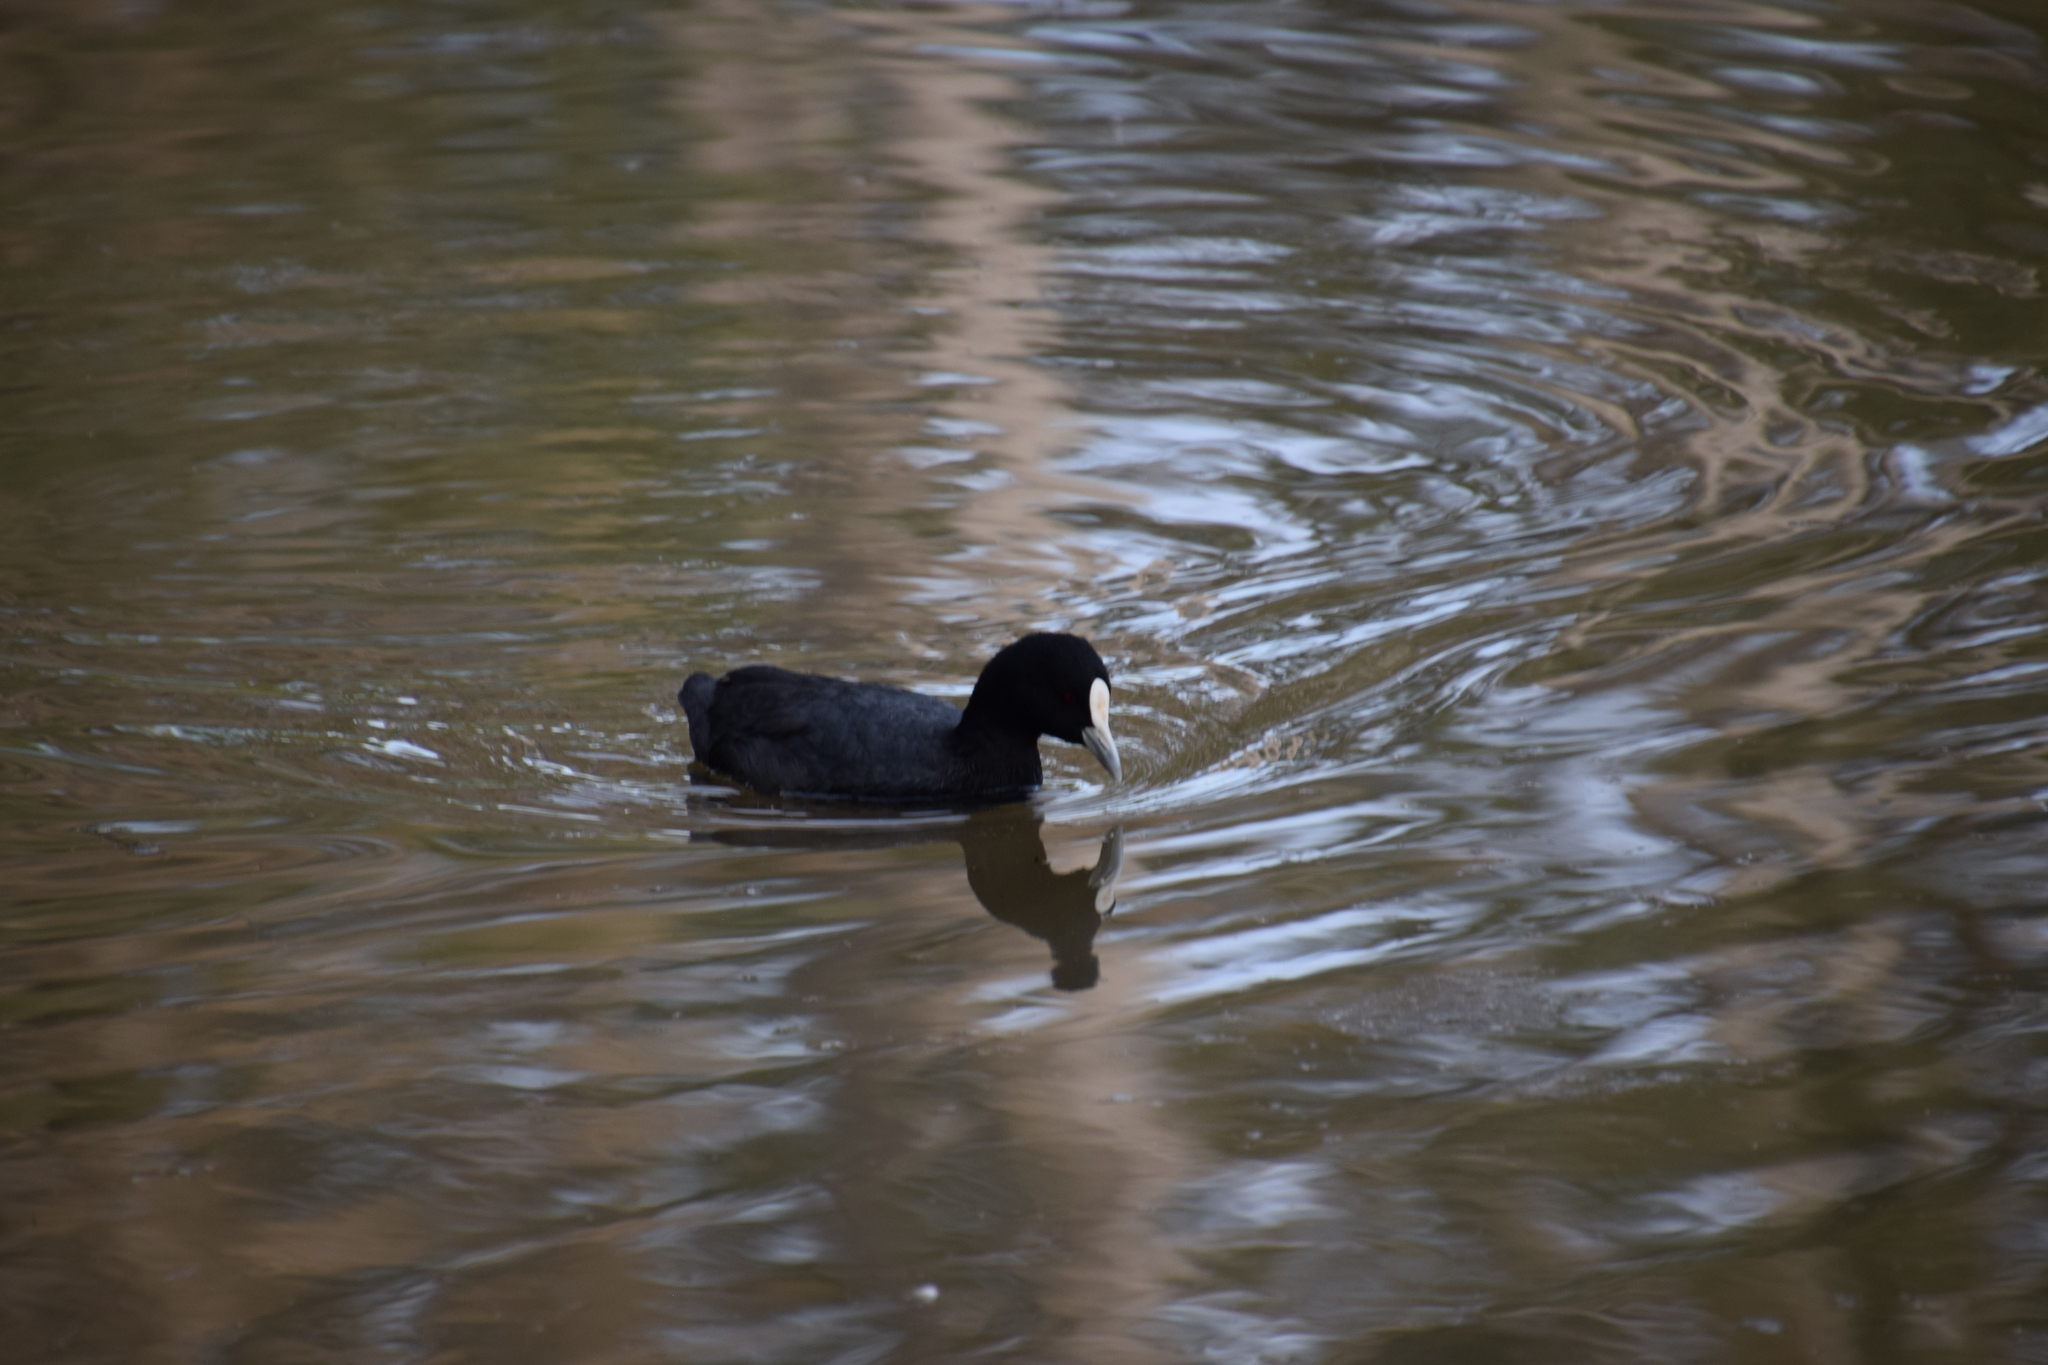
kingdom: Animalia
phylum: Chordata
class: Aves
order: Gruiformes
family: Rallidae
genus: Fulica
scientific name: Fulica atra
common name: Eurasian coot
